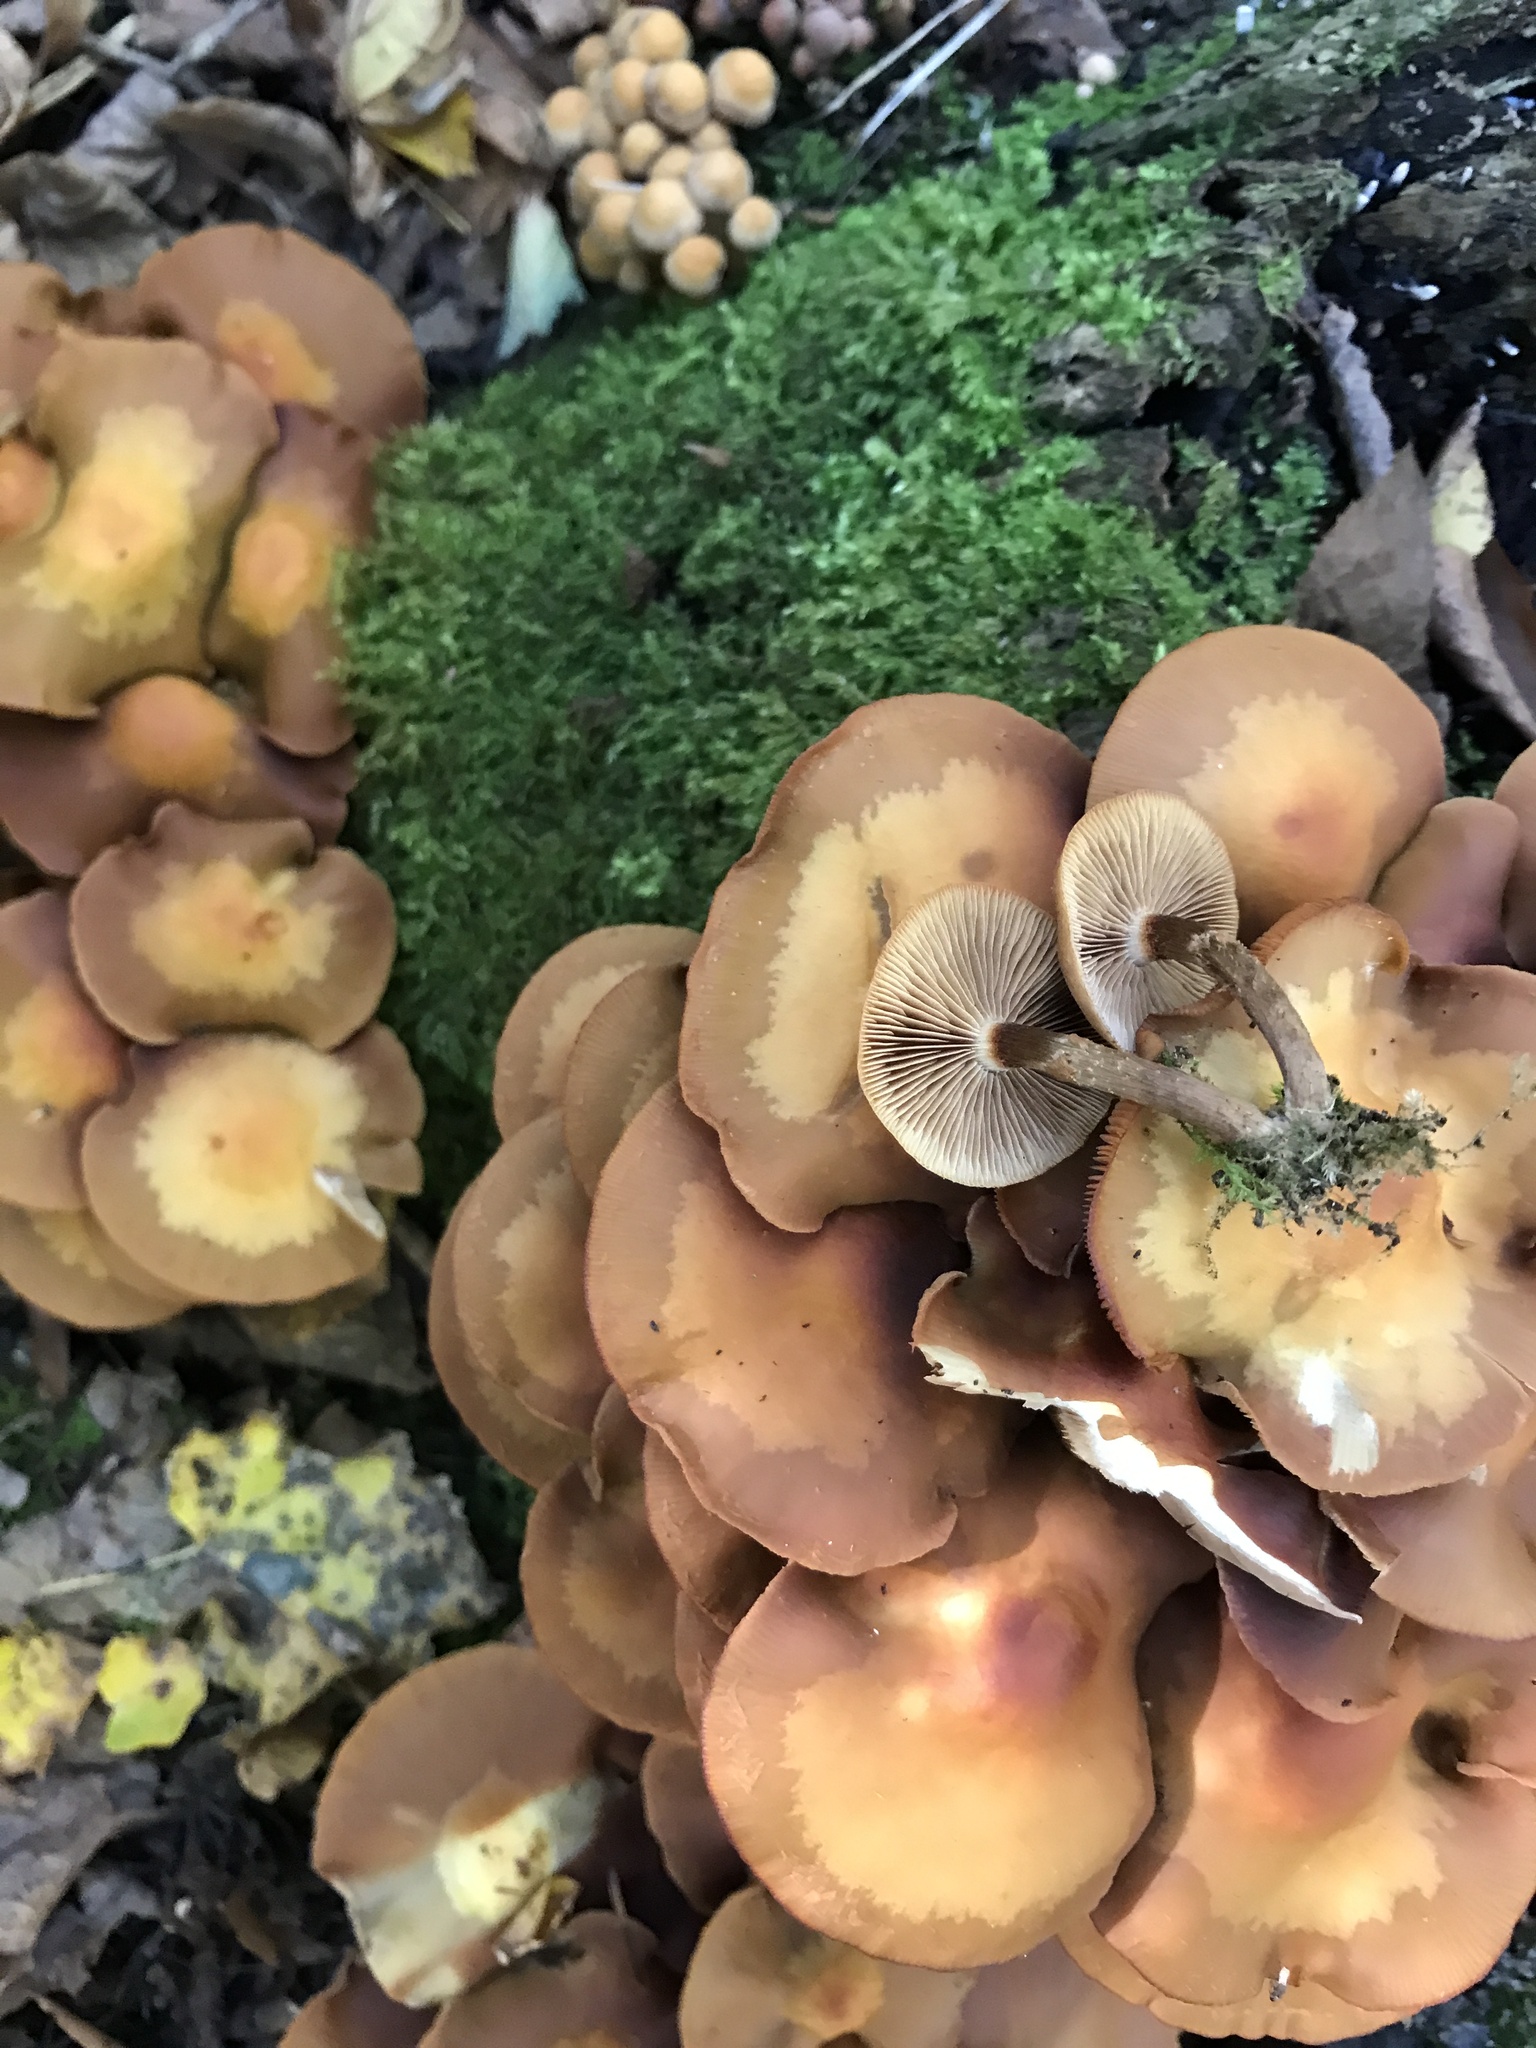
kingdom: Fungi
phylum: Basidiomycota
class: Agaricomycetes
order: Agaricales
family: Strophariaceae
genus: Kuehneromyces
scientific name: Kuehneromyces mutabilis
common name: Sheathed woodtuft
